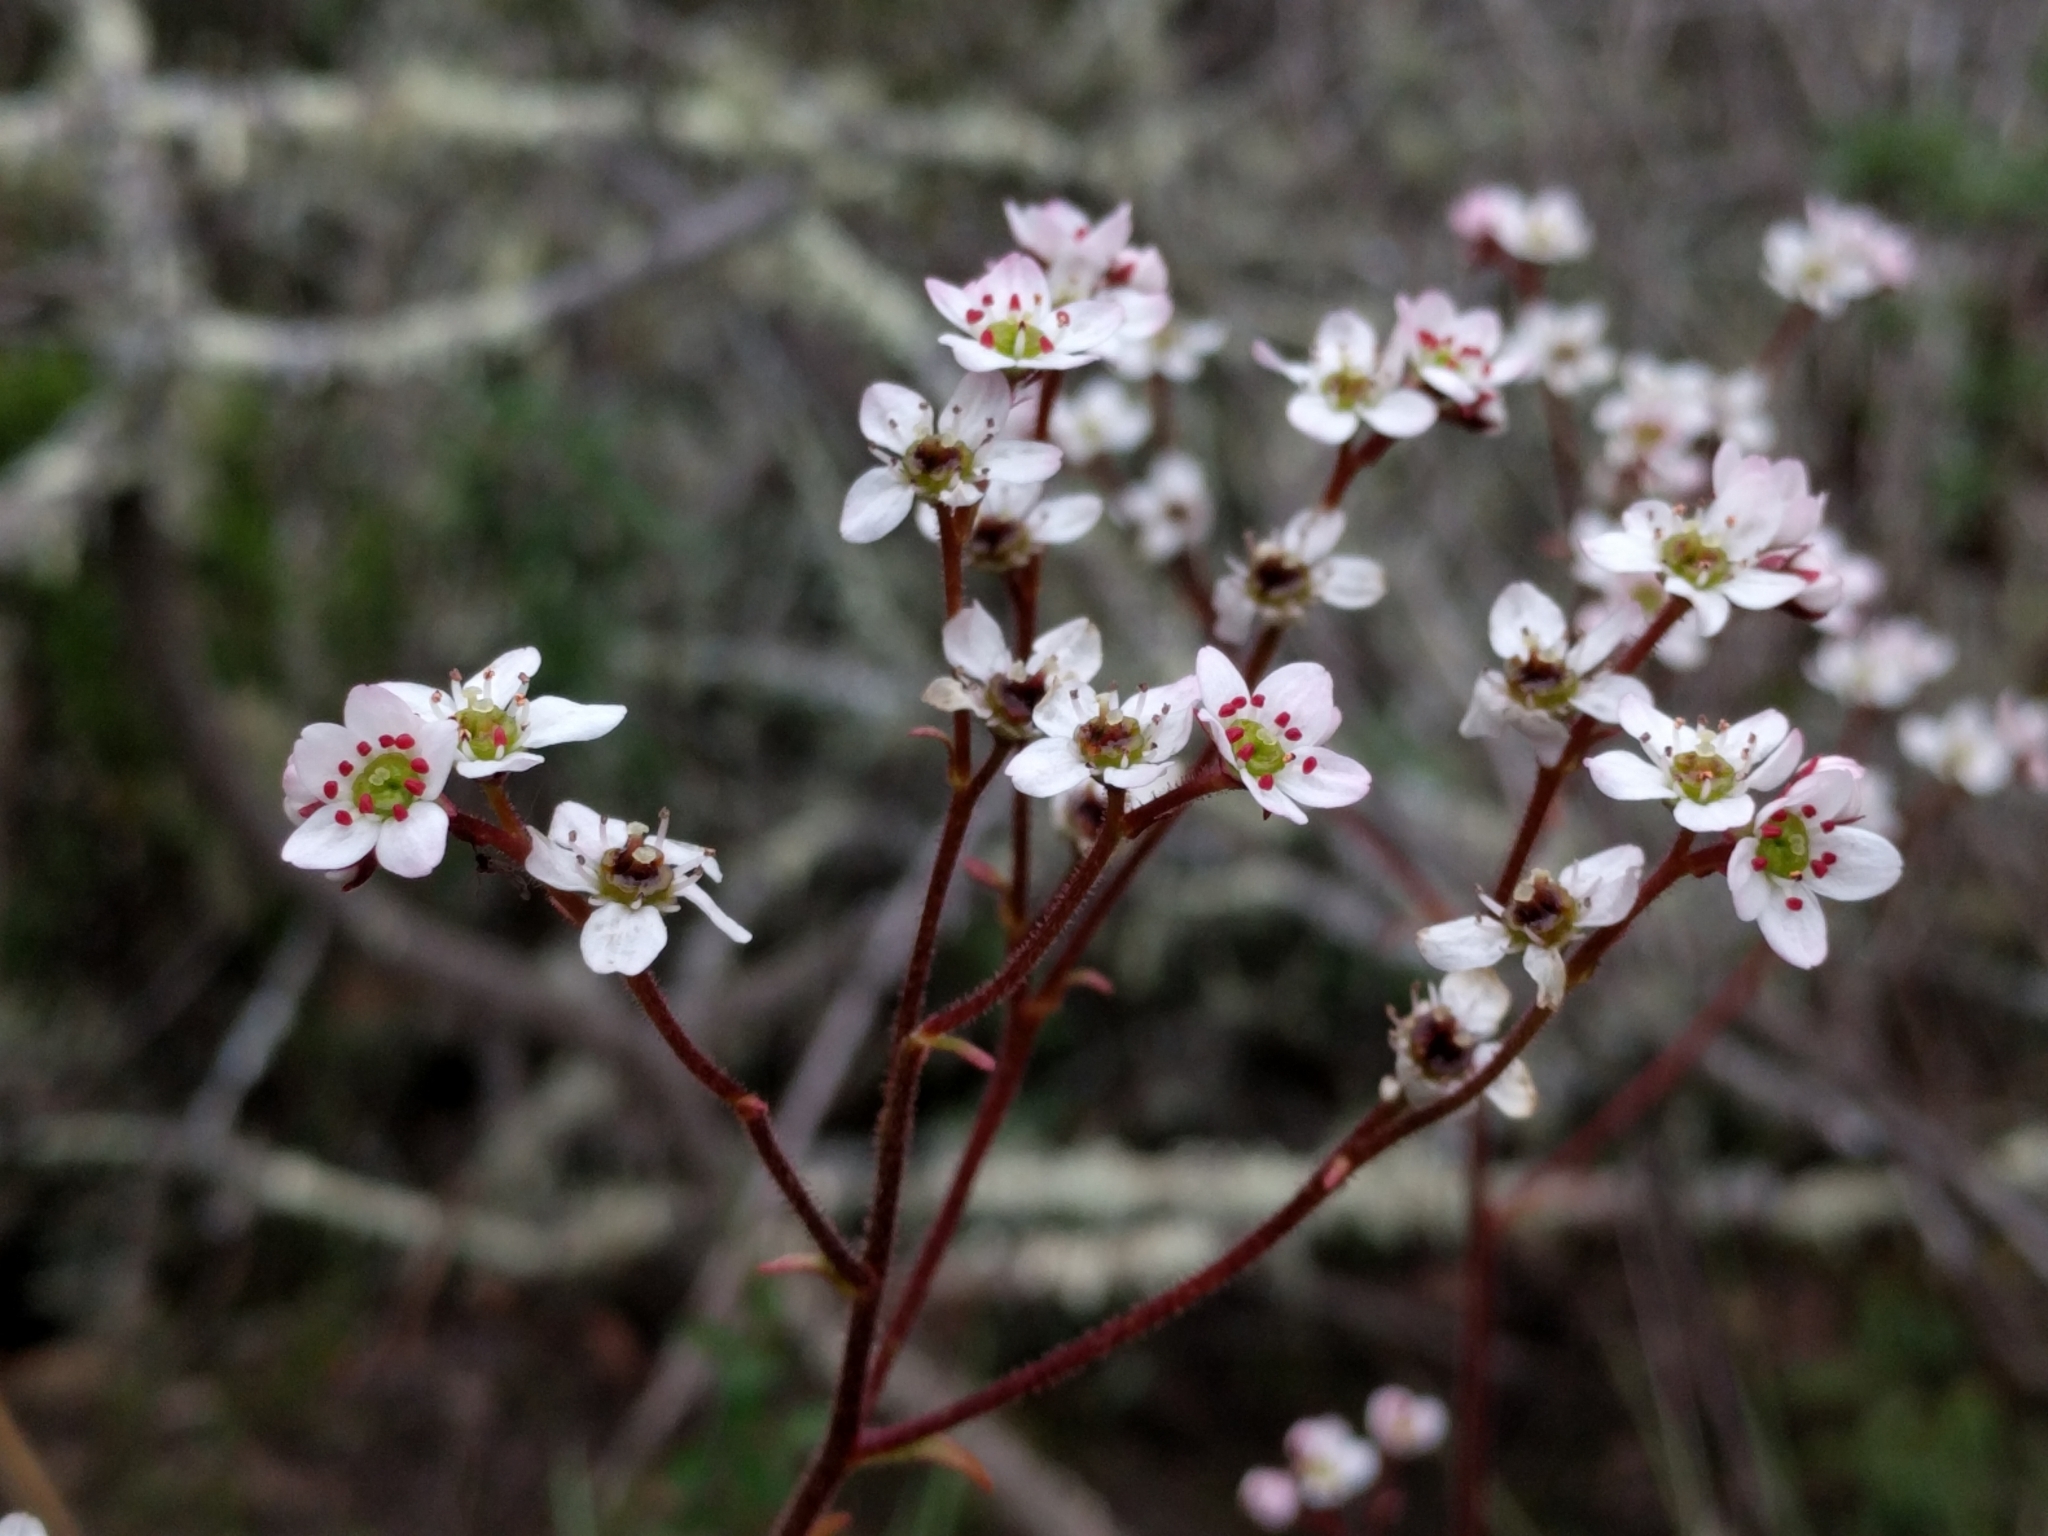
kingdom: Plantae
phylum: Tracheophyta
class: Magnoliopsida
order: Saxifragales
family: Saxifragaceae
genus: Micranthes
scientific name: Micranthes californica
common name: California saxifrage
